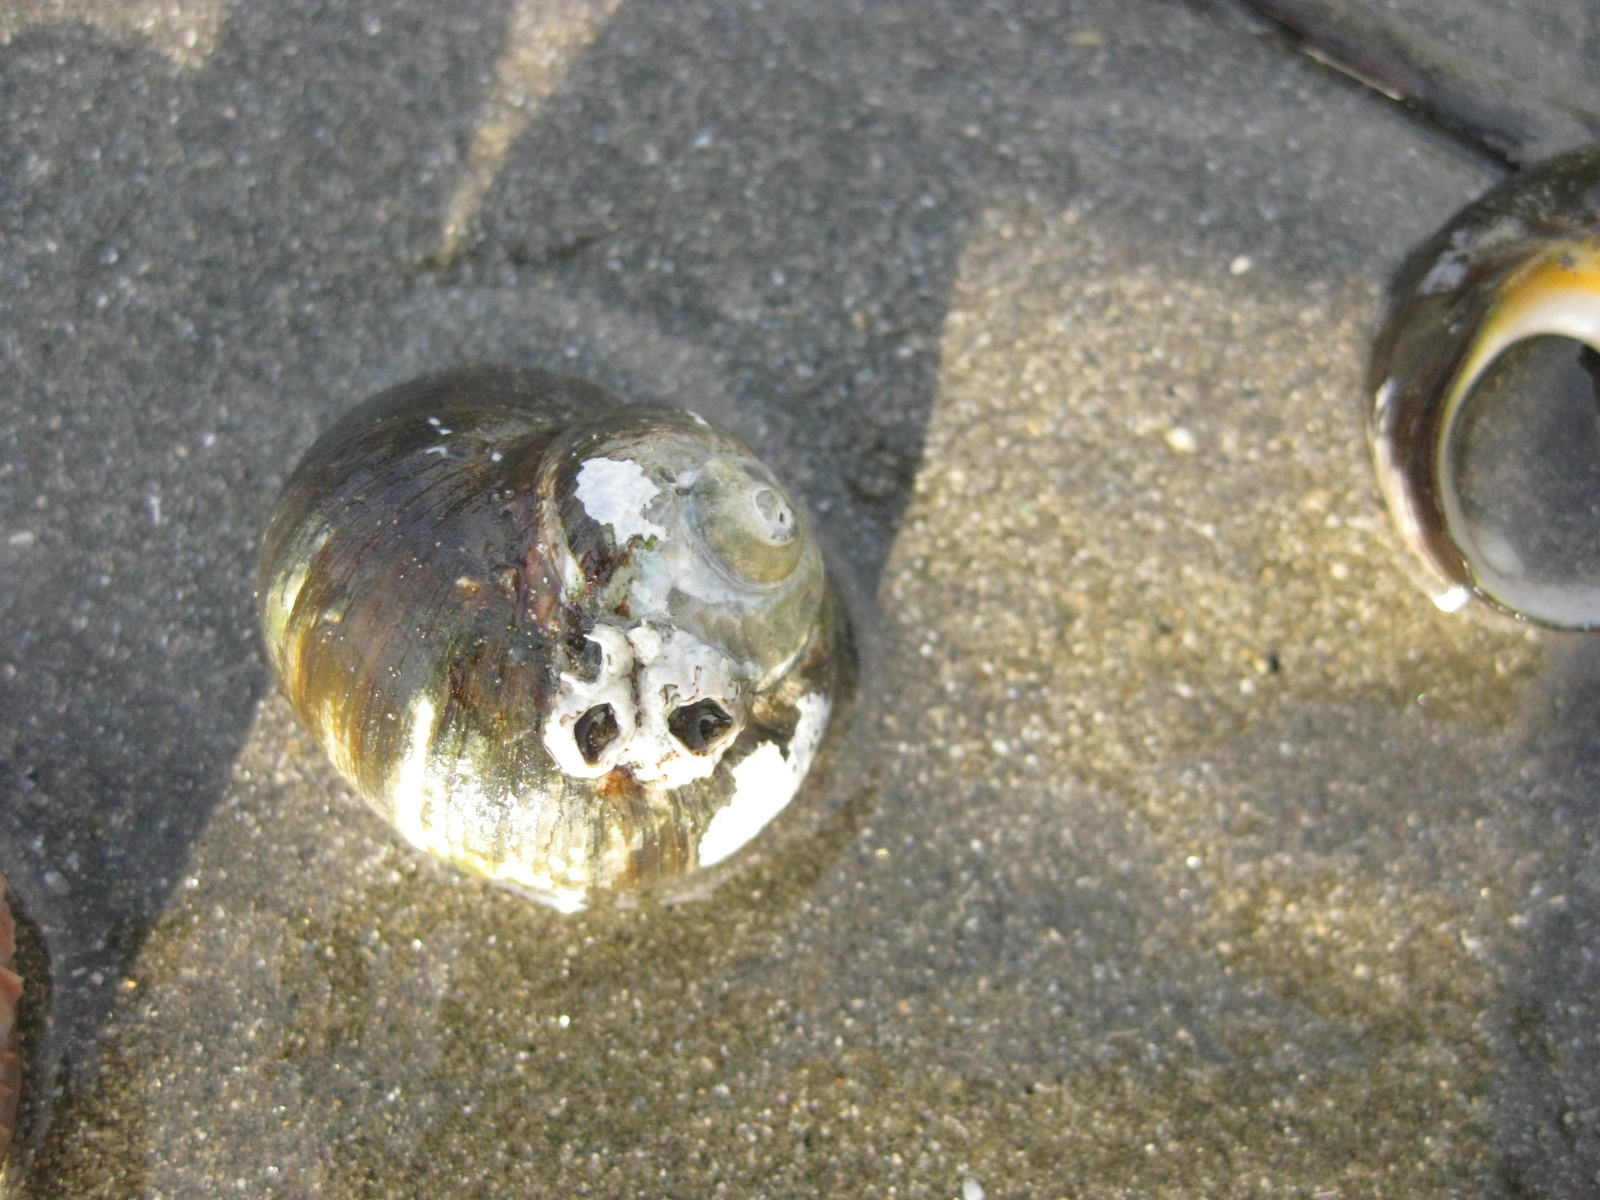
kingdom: Animalia
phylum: Mollusca
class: Gastropoda
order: Trochida
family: Turbinidae
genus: Lunella
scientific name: Lunella smaragda
